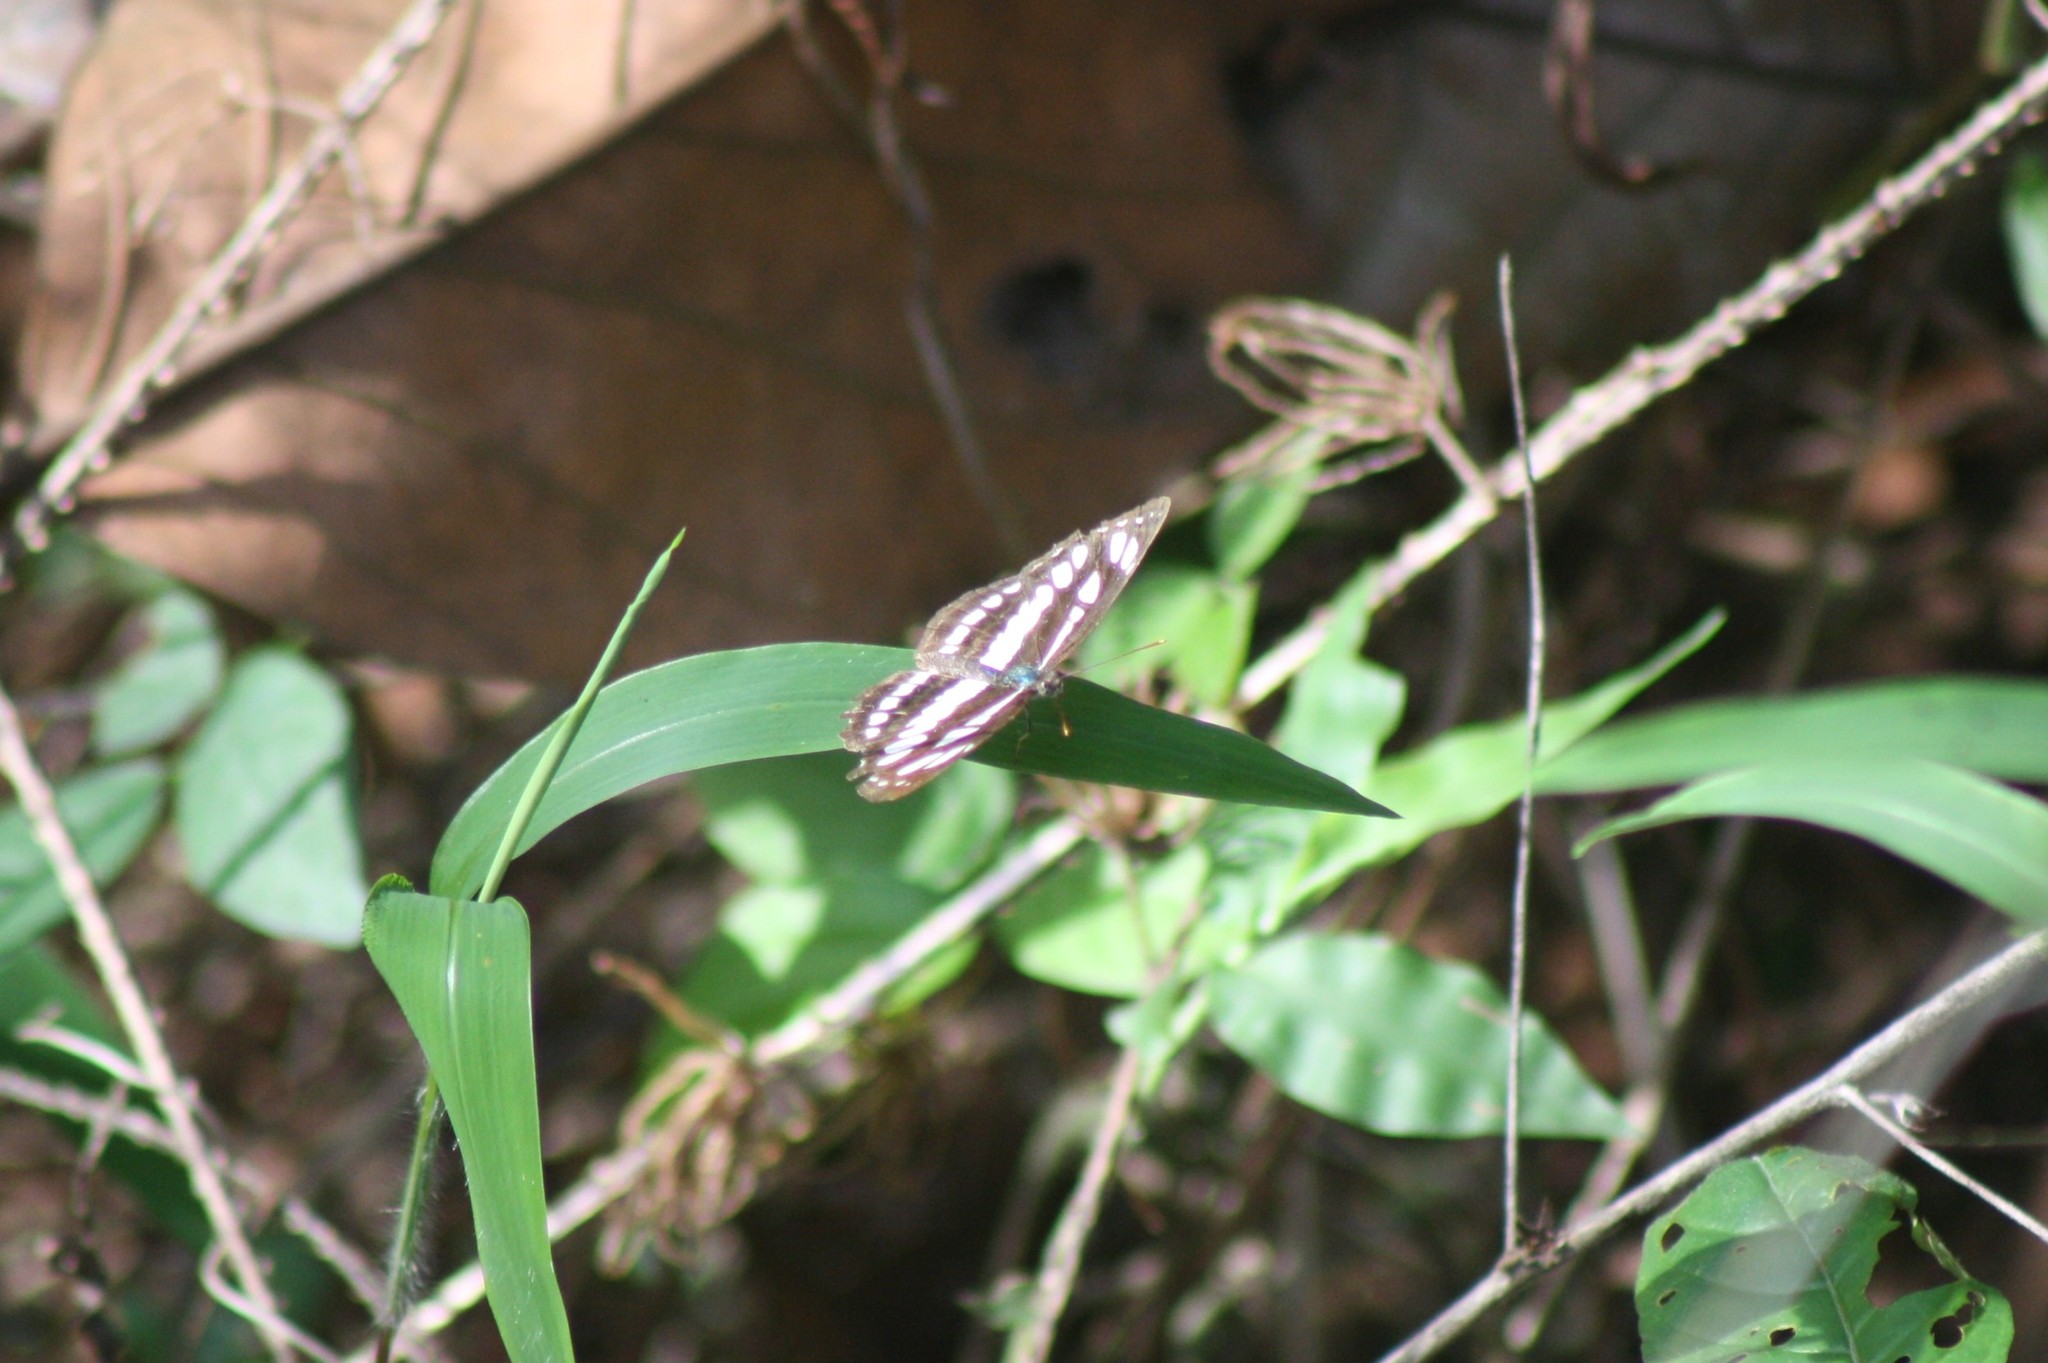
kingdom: Animalia
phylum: Arthropoda
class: Insecta
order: Lepidoptera
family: Nymphalidae
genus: Neptis
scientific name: Neptis hylas
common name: Common sailer
